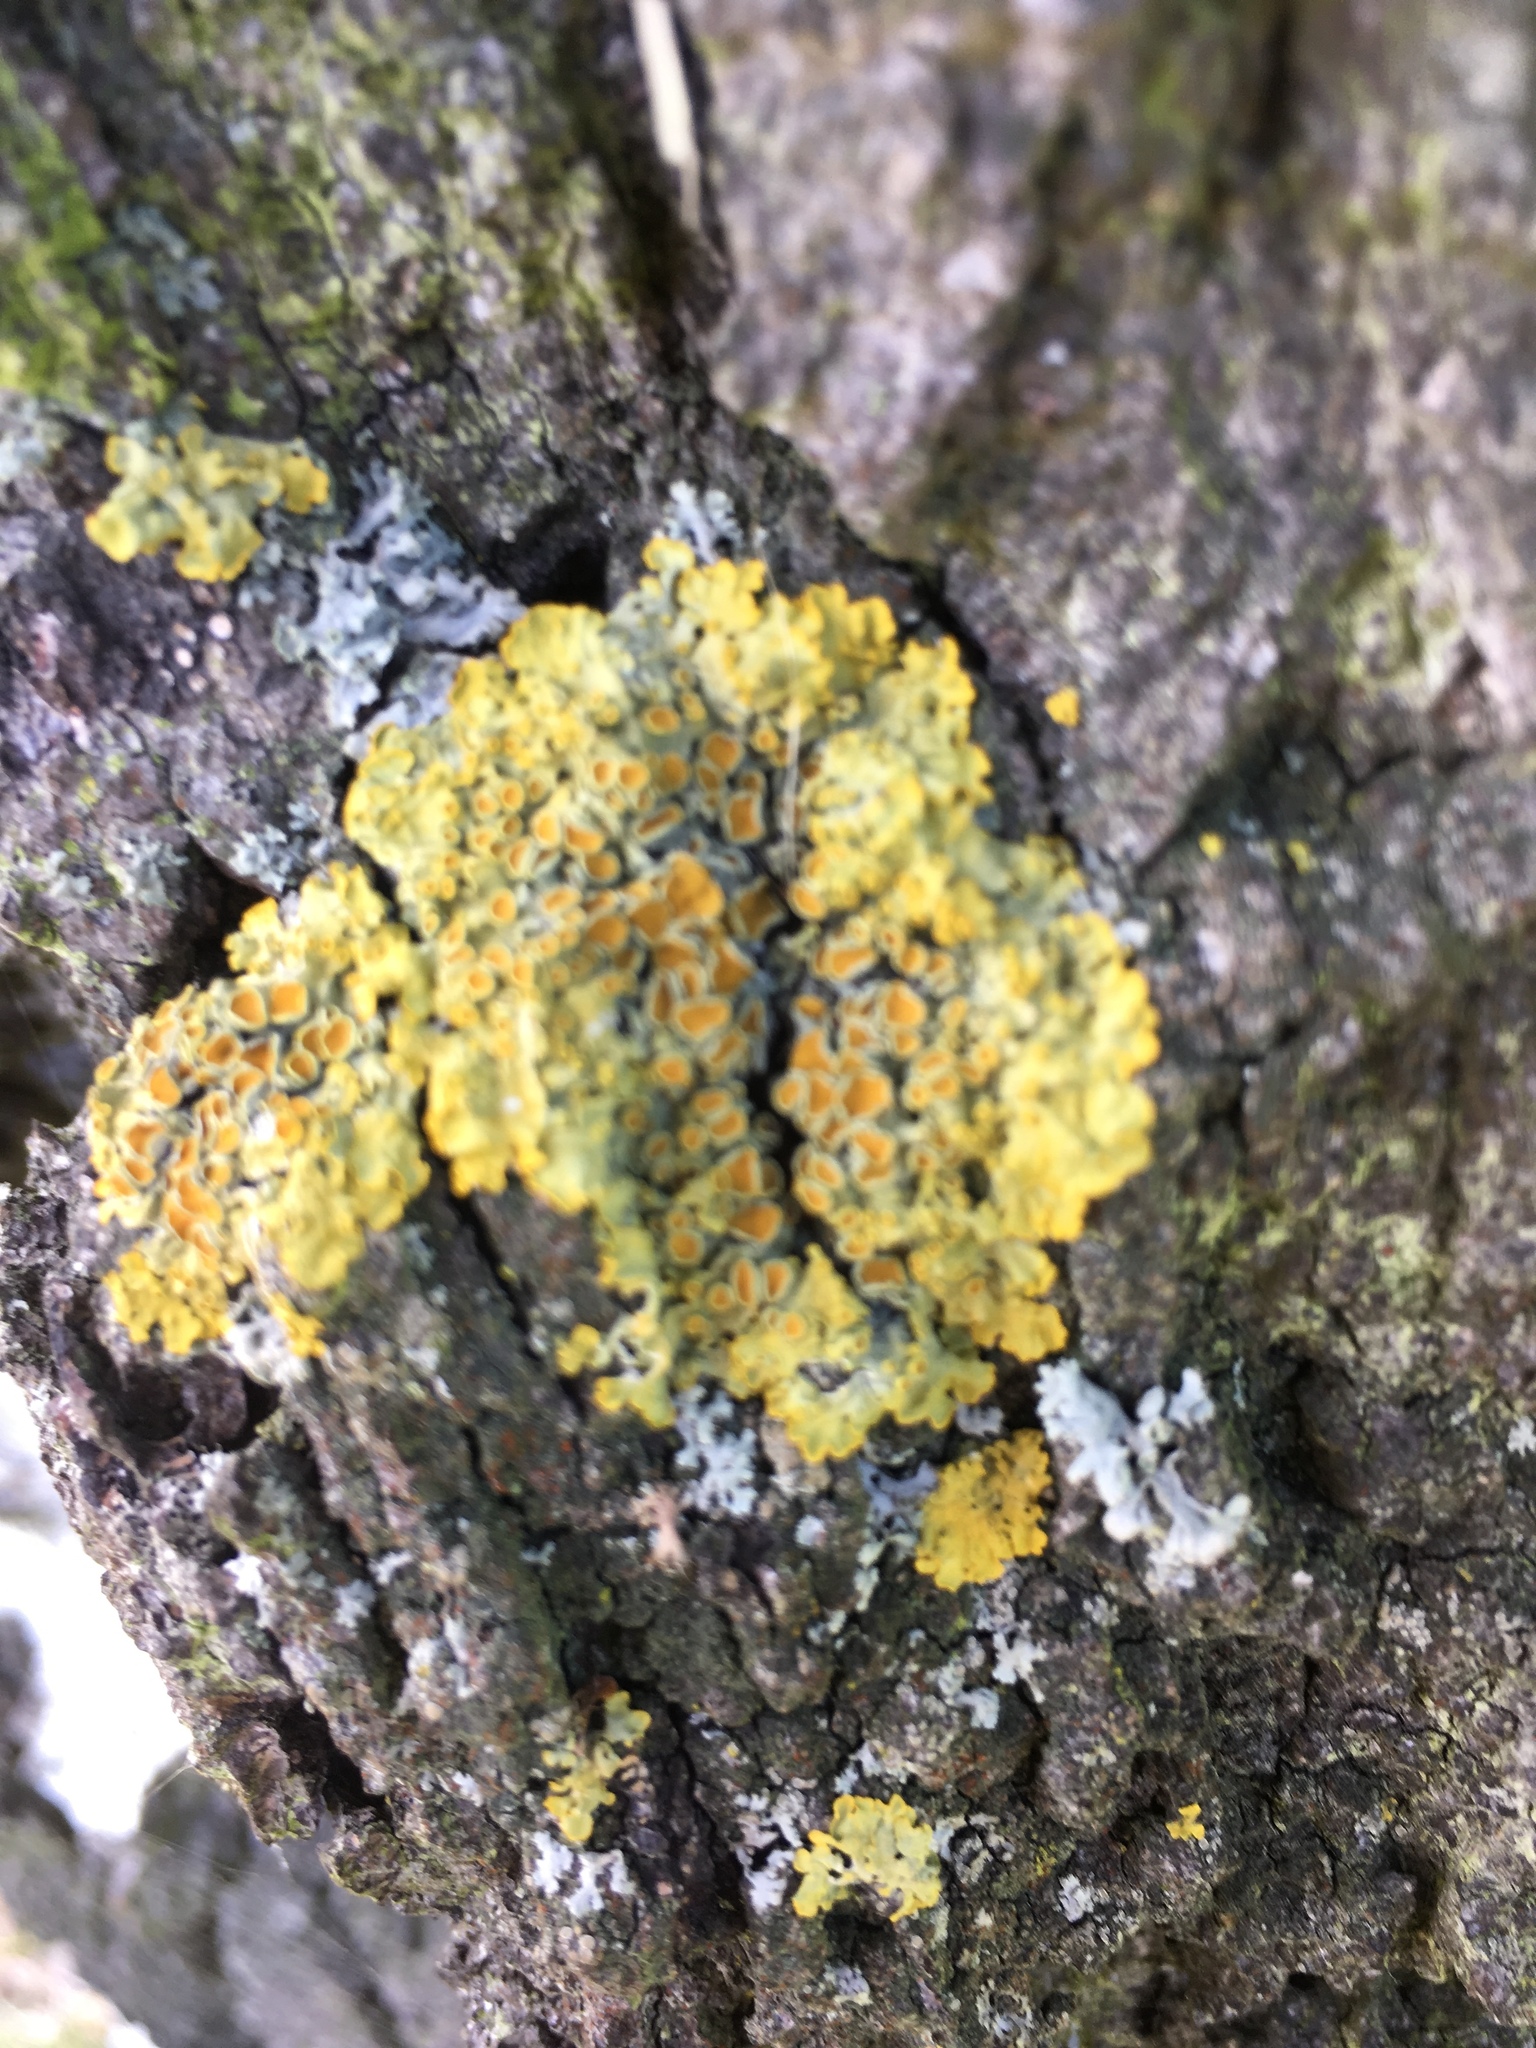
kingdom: Fungi
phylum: Ascomycota
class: Lecanoromycetes
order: Teloschistales
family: Teloschistaceae
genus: Xanthoria
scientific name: Xanthoria parietina
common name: Common orange lichen
